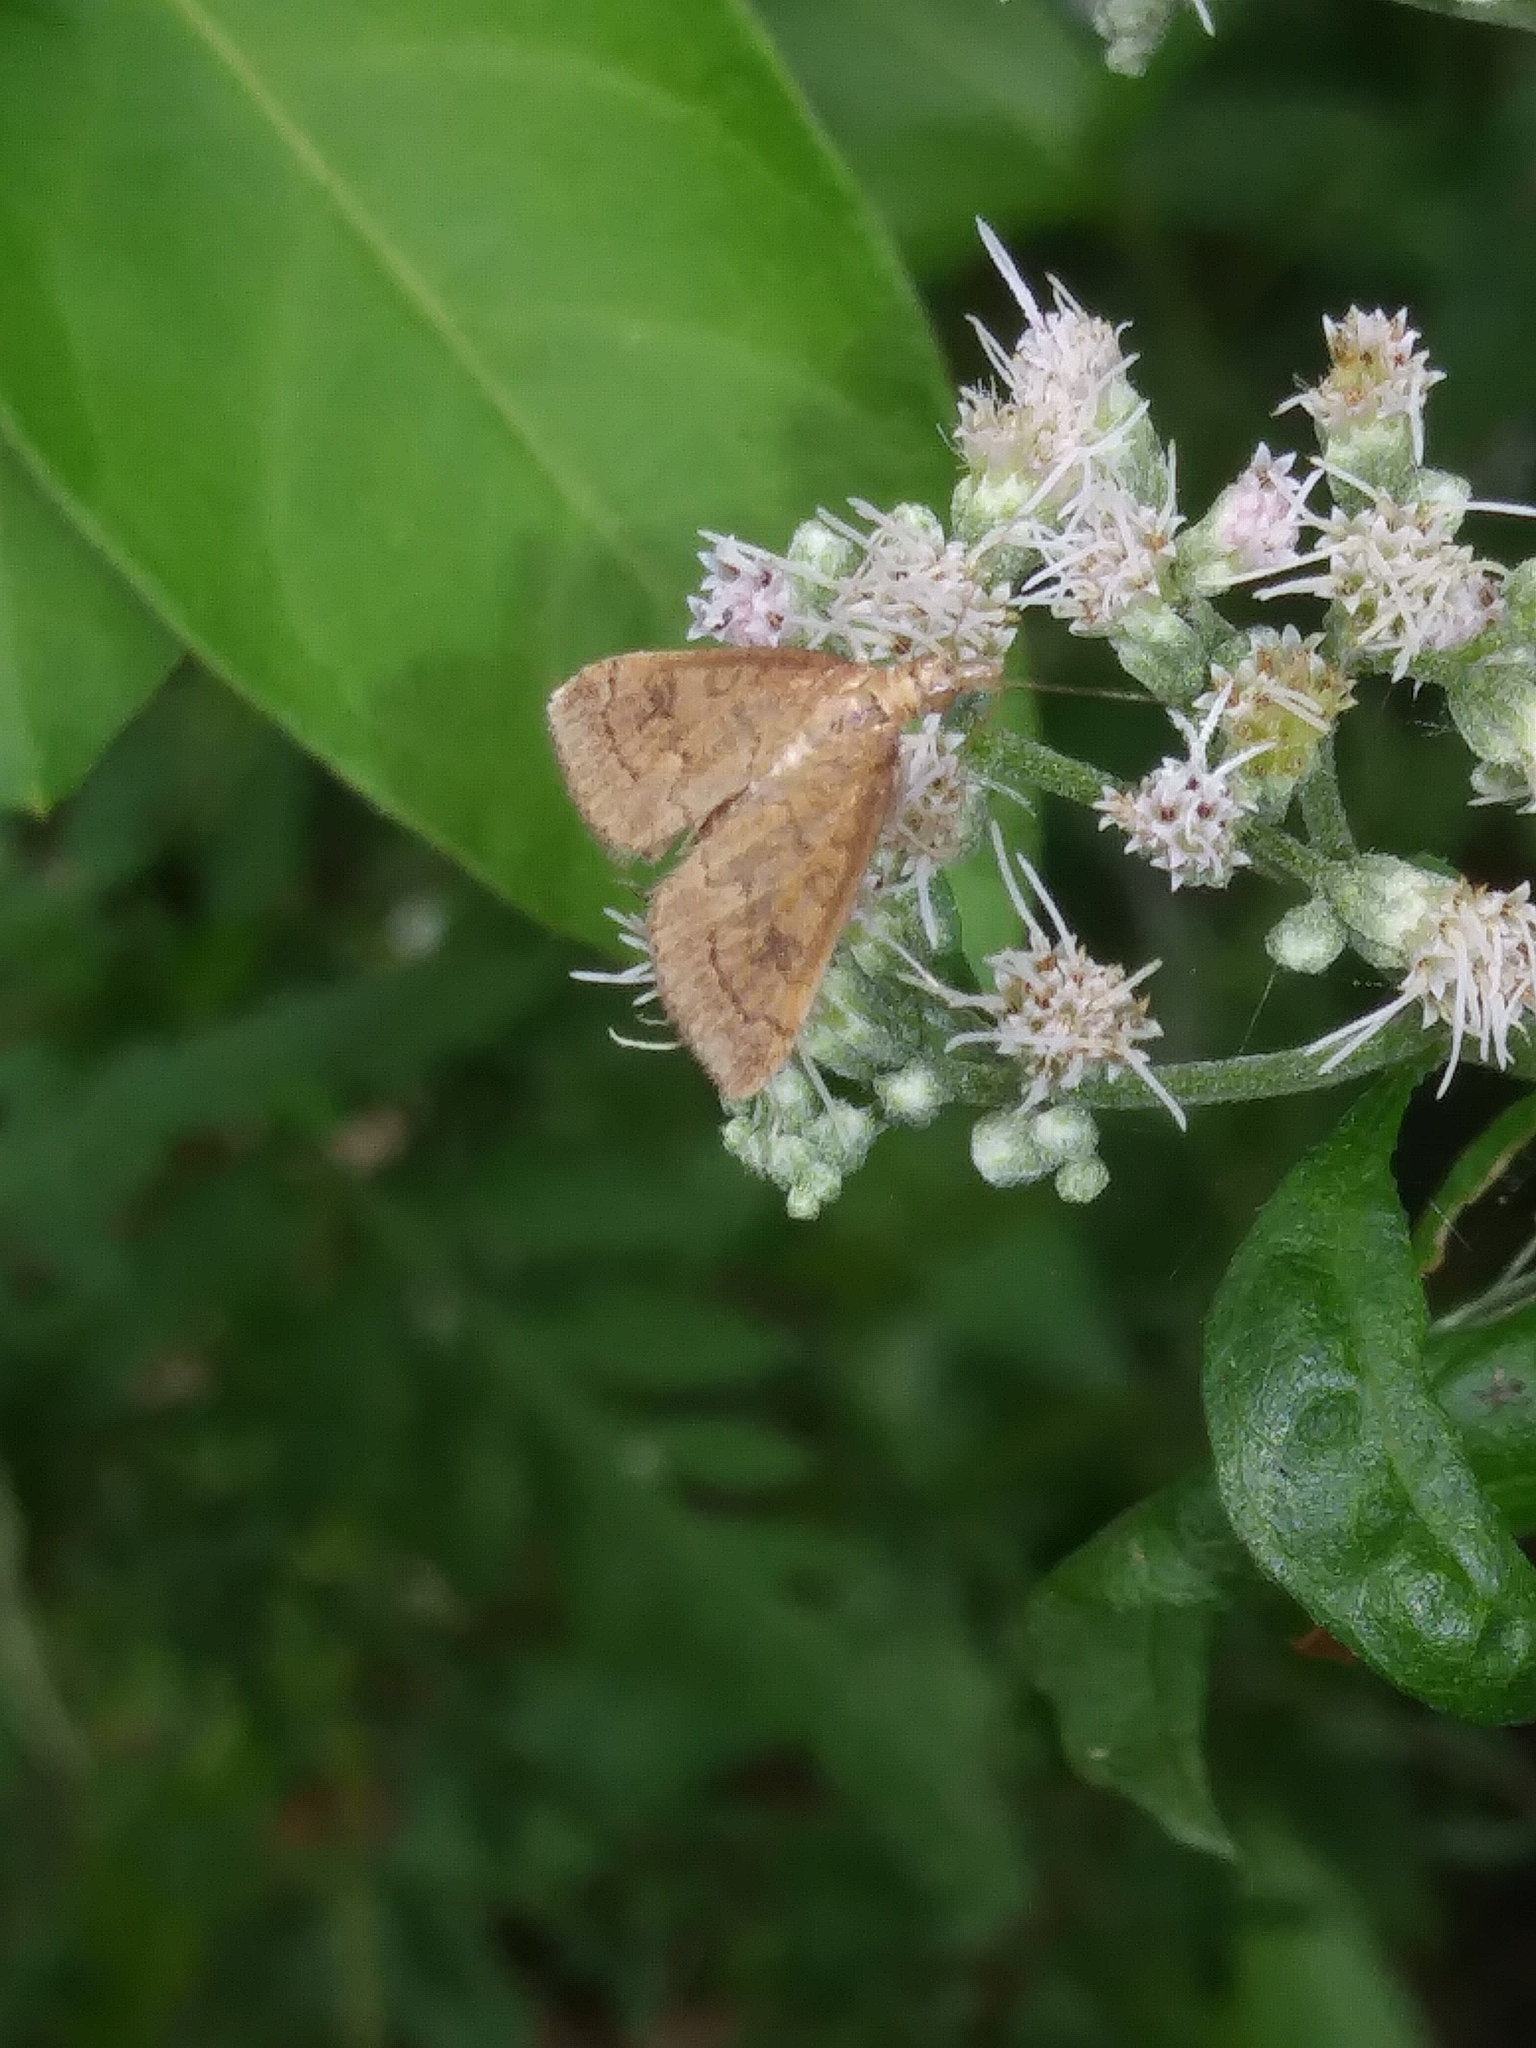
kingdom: Animalia
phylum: Arthropoda
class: Insecta
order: Lepidoptera
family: Crambidae
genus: Udea
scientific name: Udea rubigalis
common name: Celery leaftier moth
